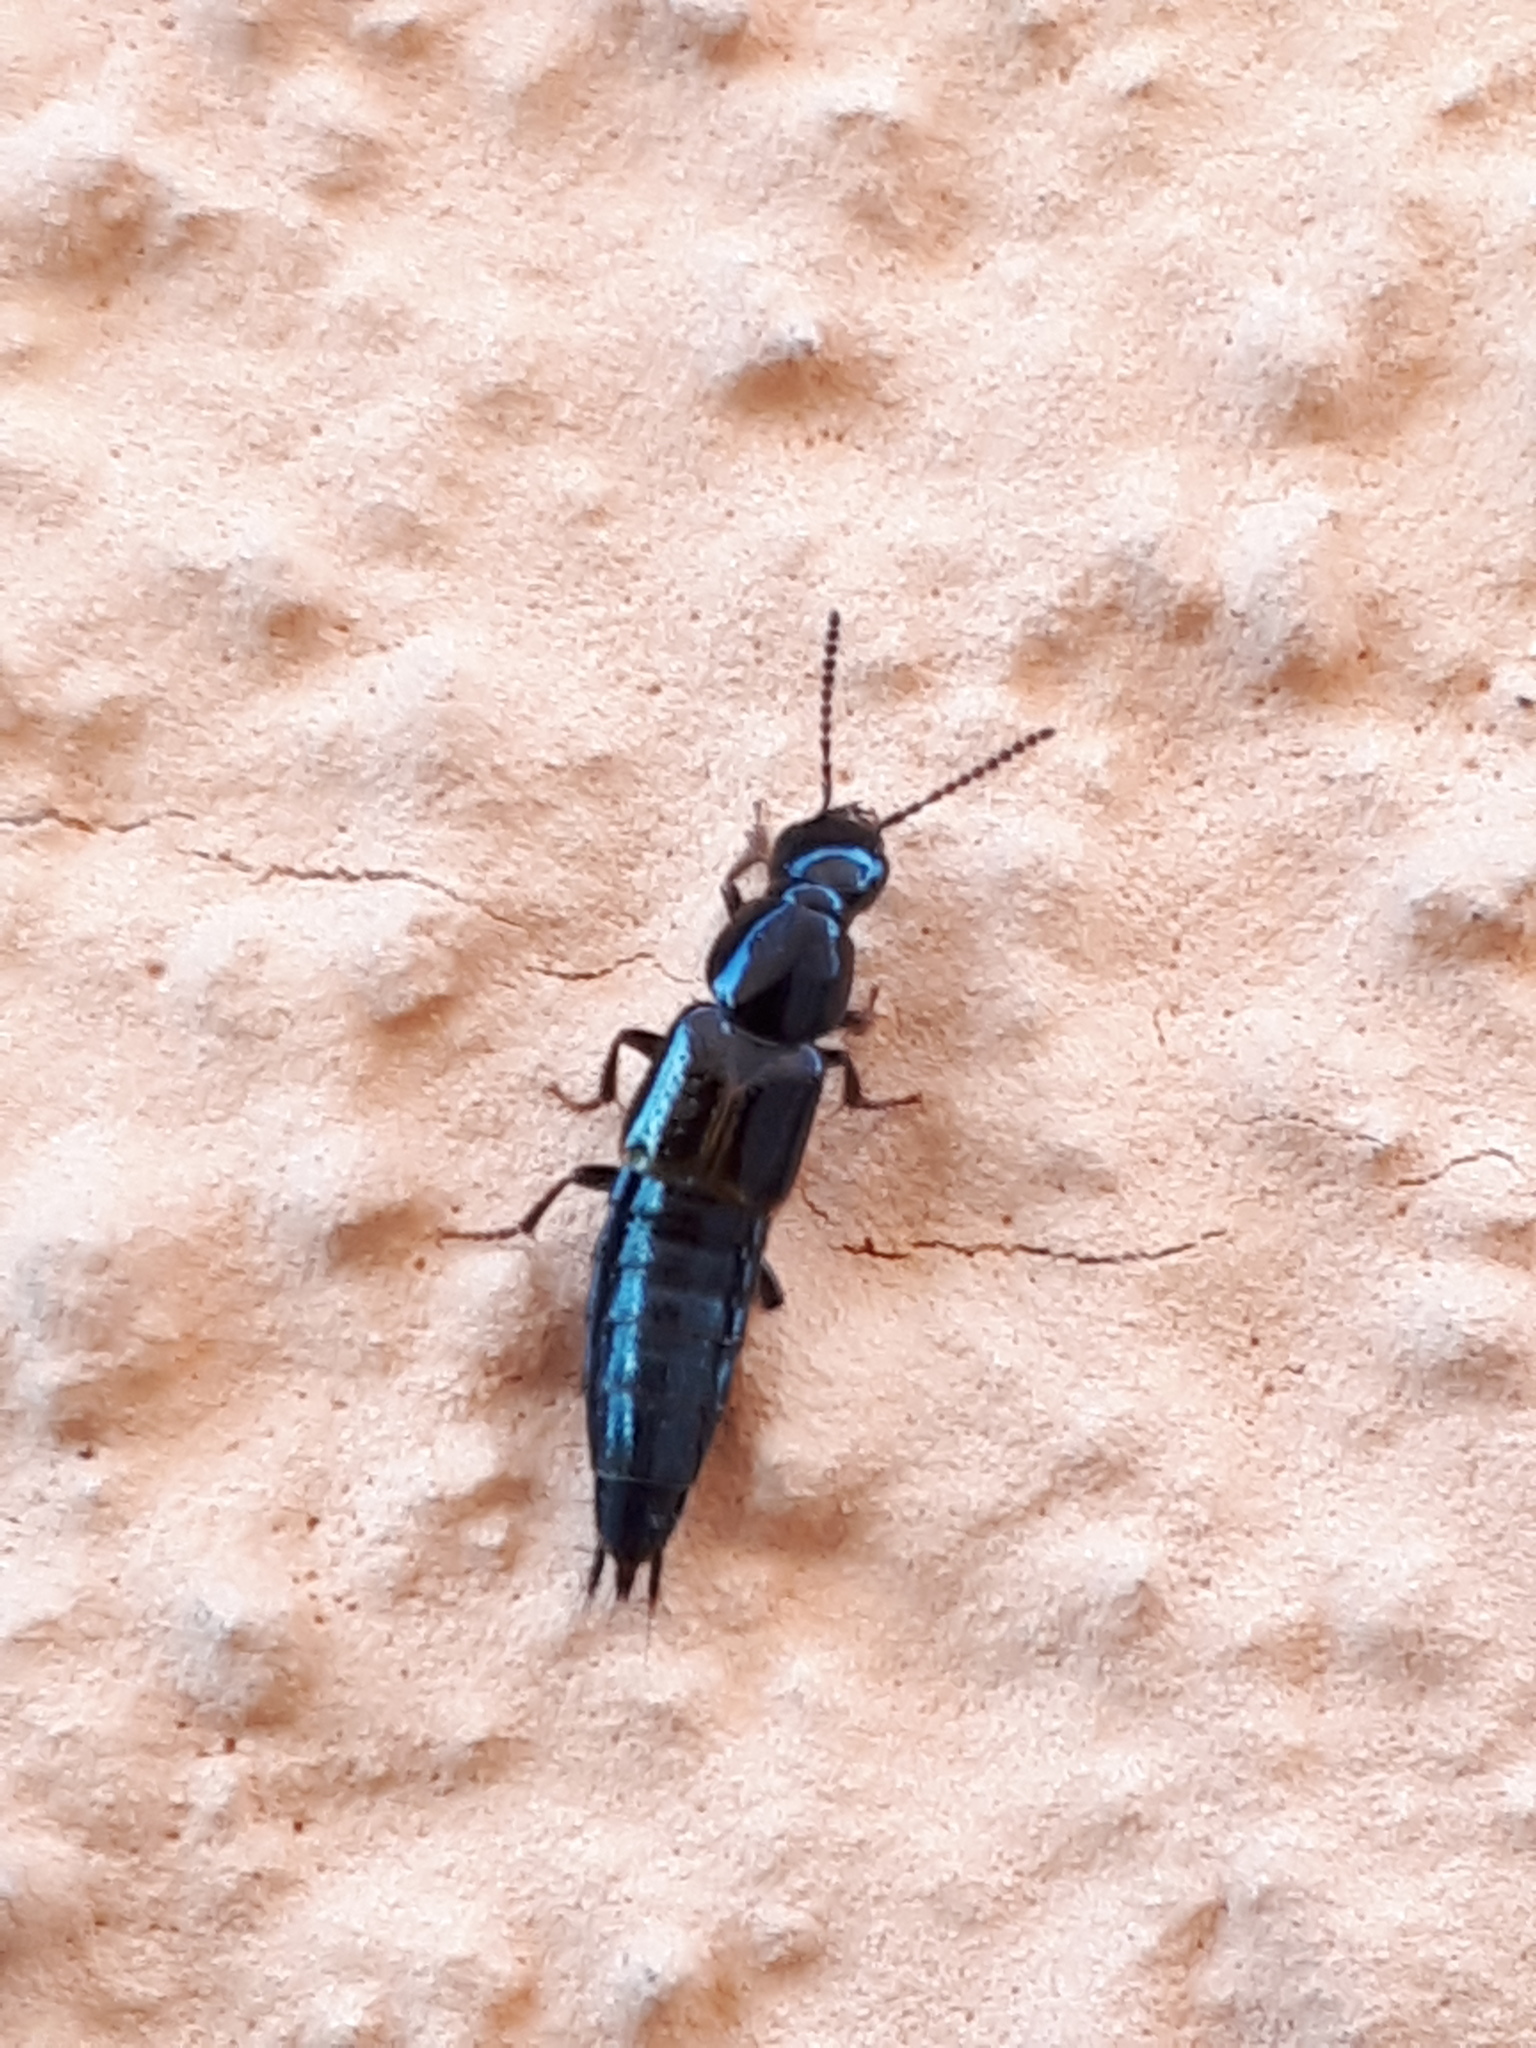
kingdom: Animalia
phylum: Arthropoda
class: Insecta
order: Coleoptera
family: Staphylinidae
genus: Quedius
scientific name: Quedius cinctus
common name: Large rove beetle
